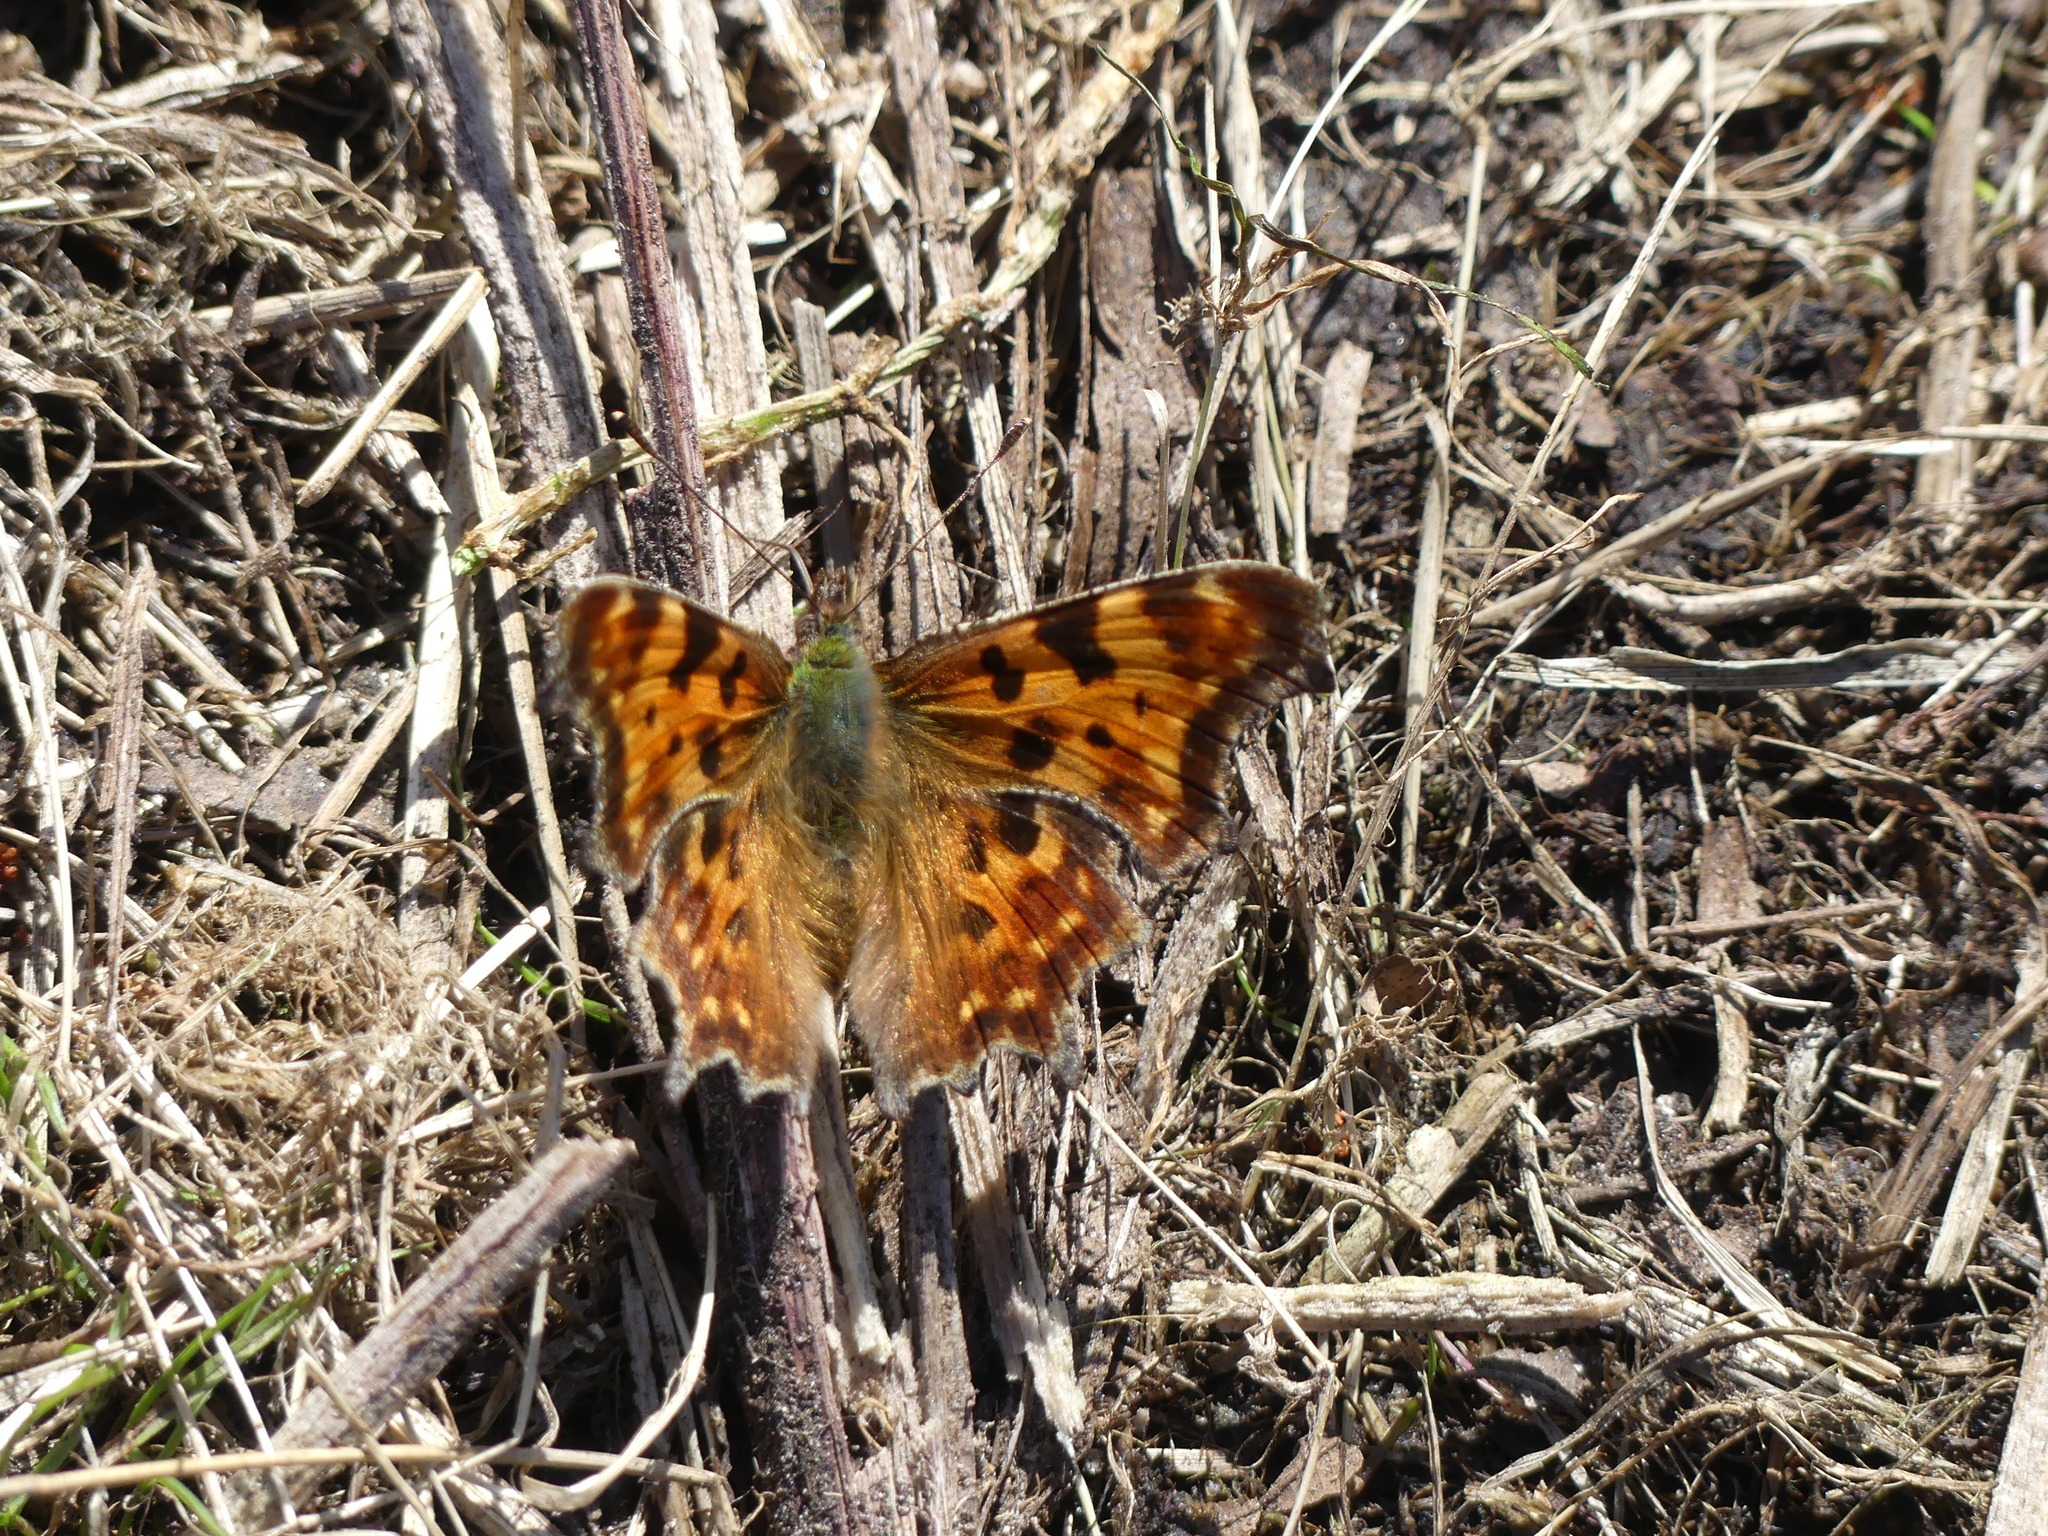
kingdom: Animalia
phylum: Arthropoda
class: Insecta
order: Lepidoptera
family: Nymphalidae
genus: Polygonia
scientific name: Polygonia c-album
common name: Comma
